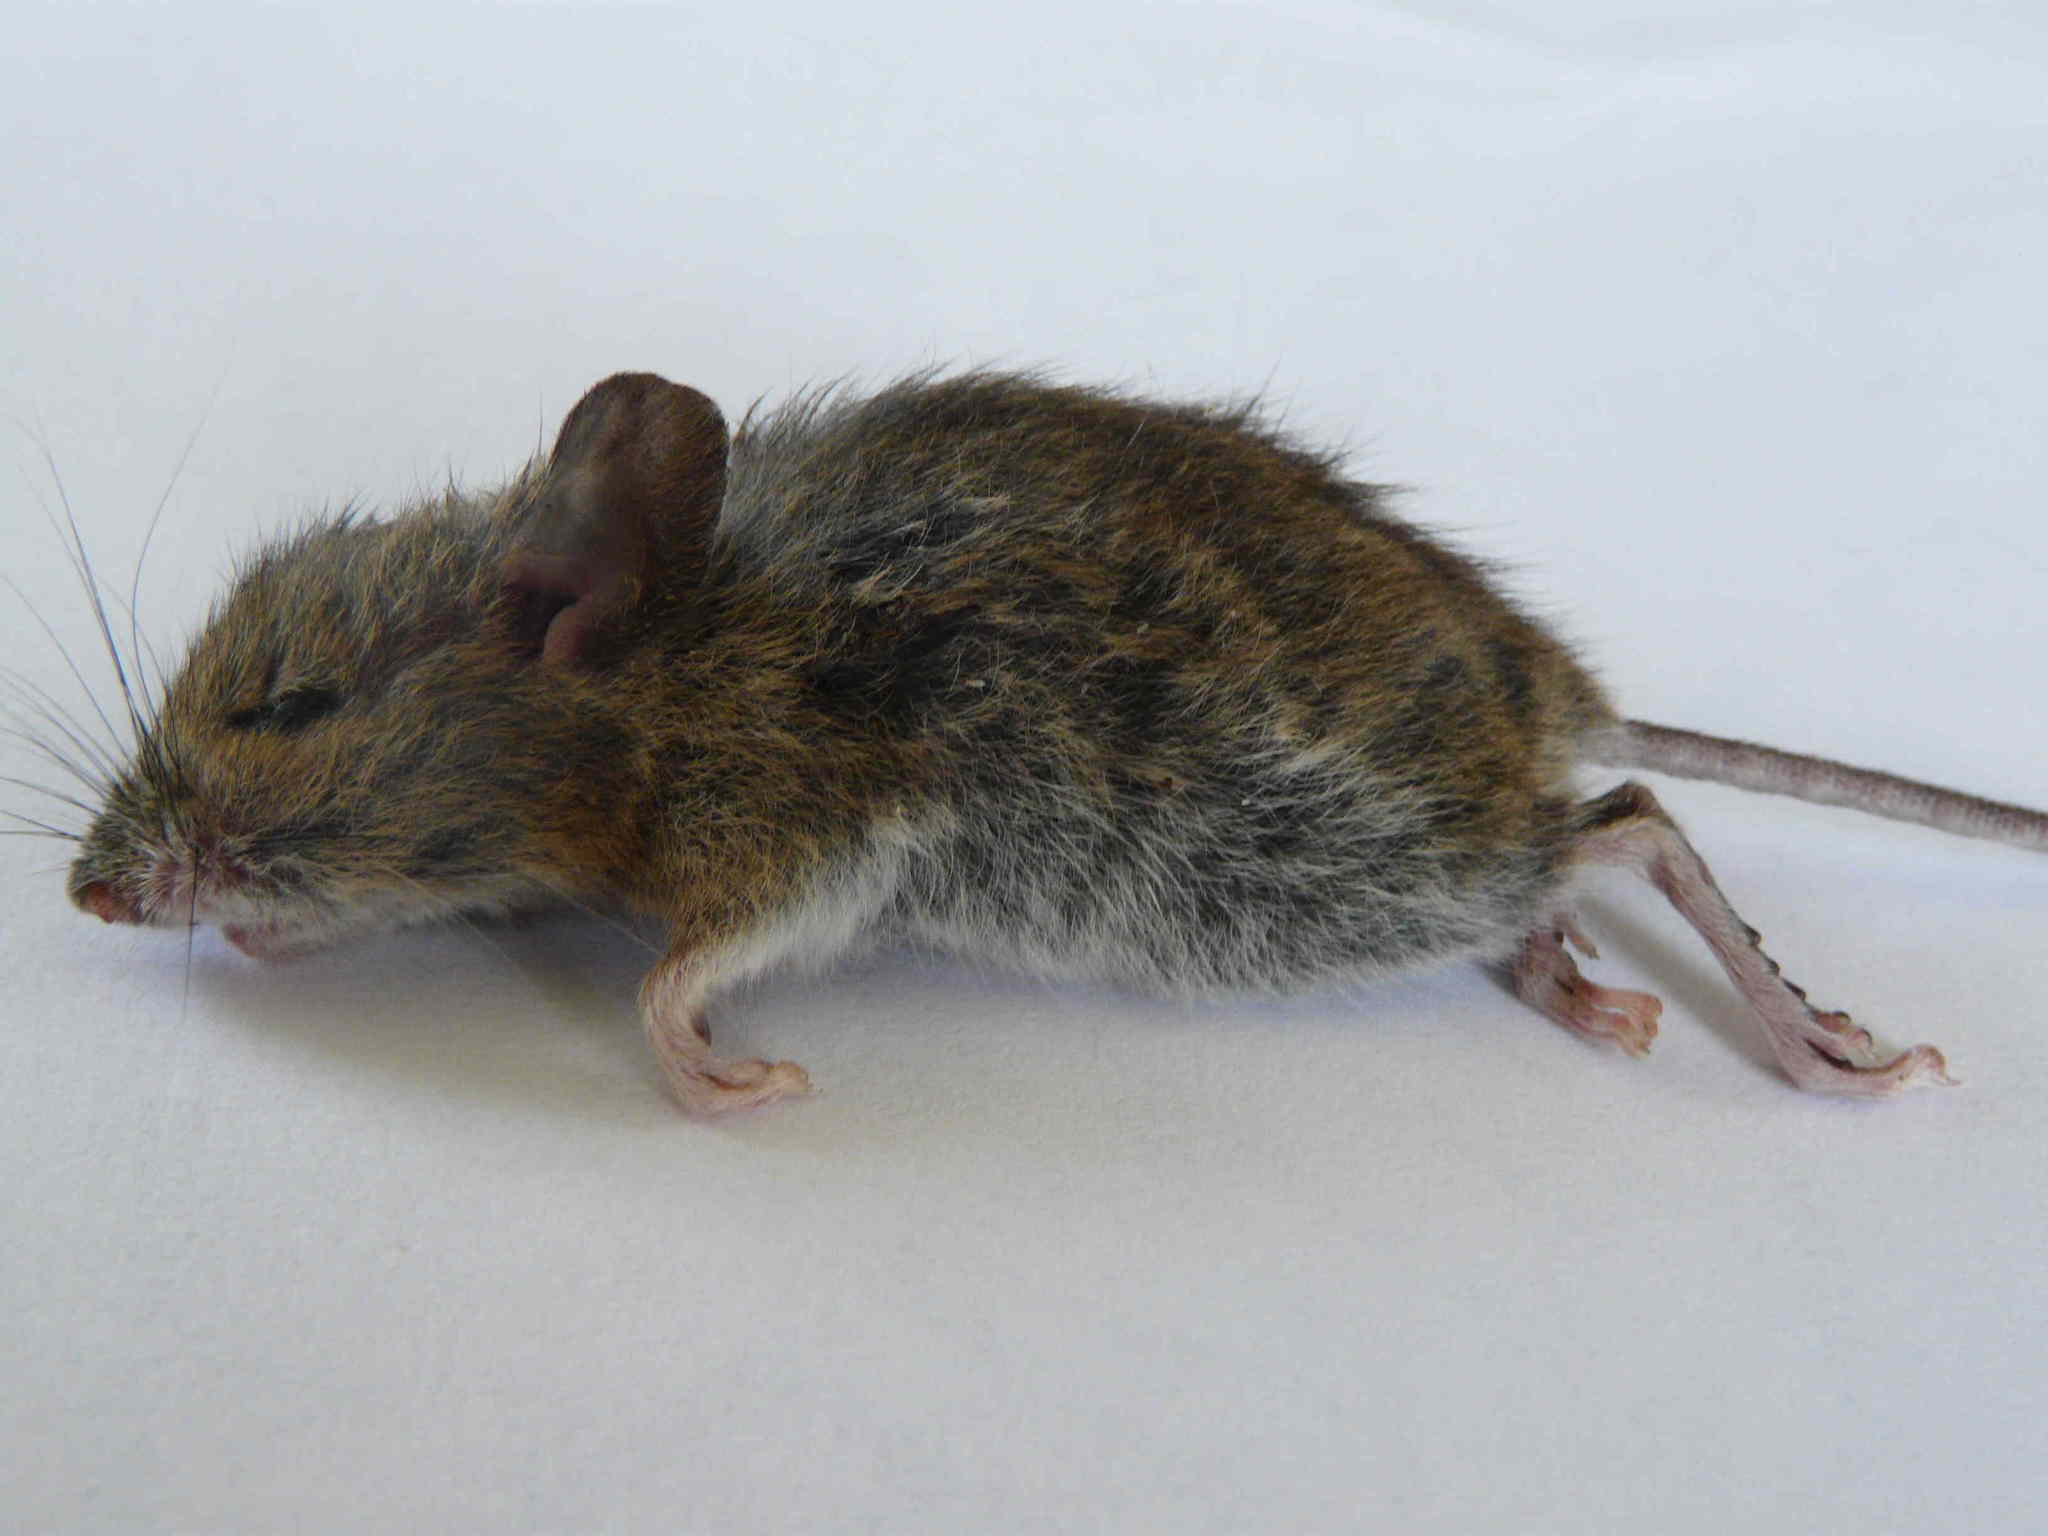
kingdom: Animalia
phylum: Chordata
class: Mammalia
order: Rodentia
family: Muridae
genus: Apodemus
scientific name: Apodemus sylvaticus
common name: Wood mouse
